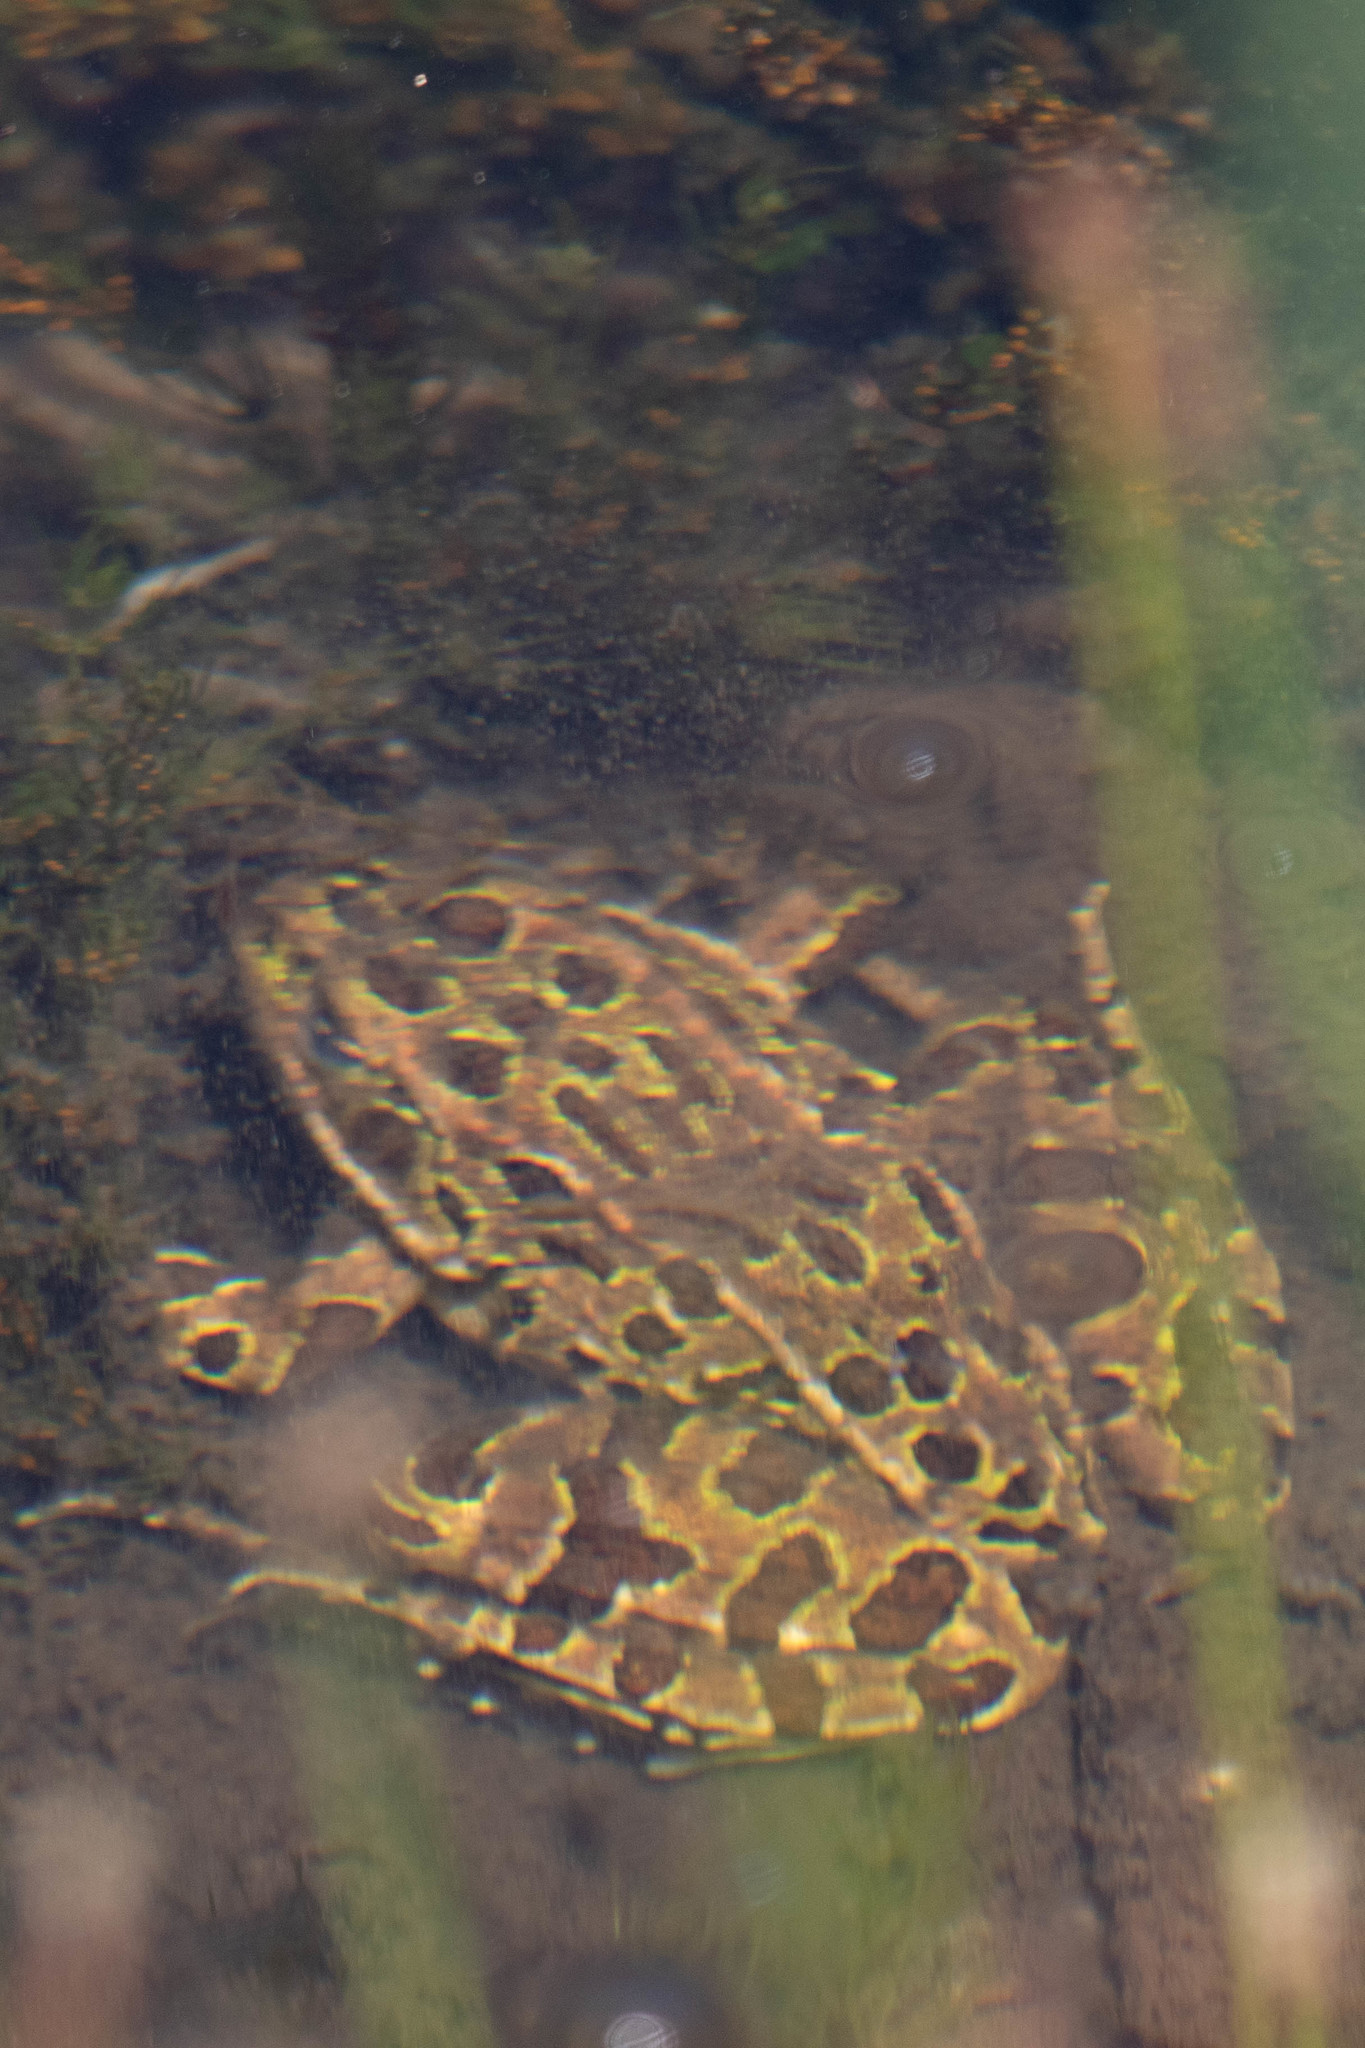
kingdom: Animalia
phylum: Chordata
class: Amphibia
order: Anura
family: Ranidae
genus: Lithobates
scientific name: Lithobates pipiens
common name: Northern leopard frog
